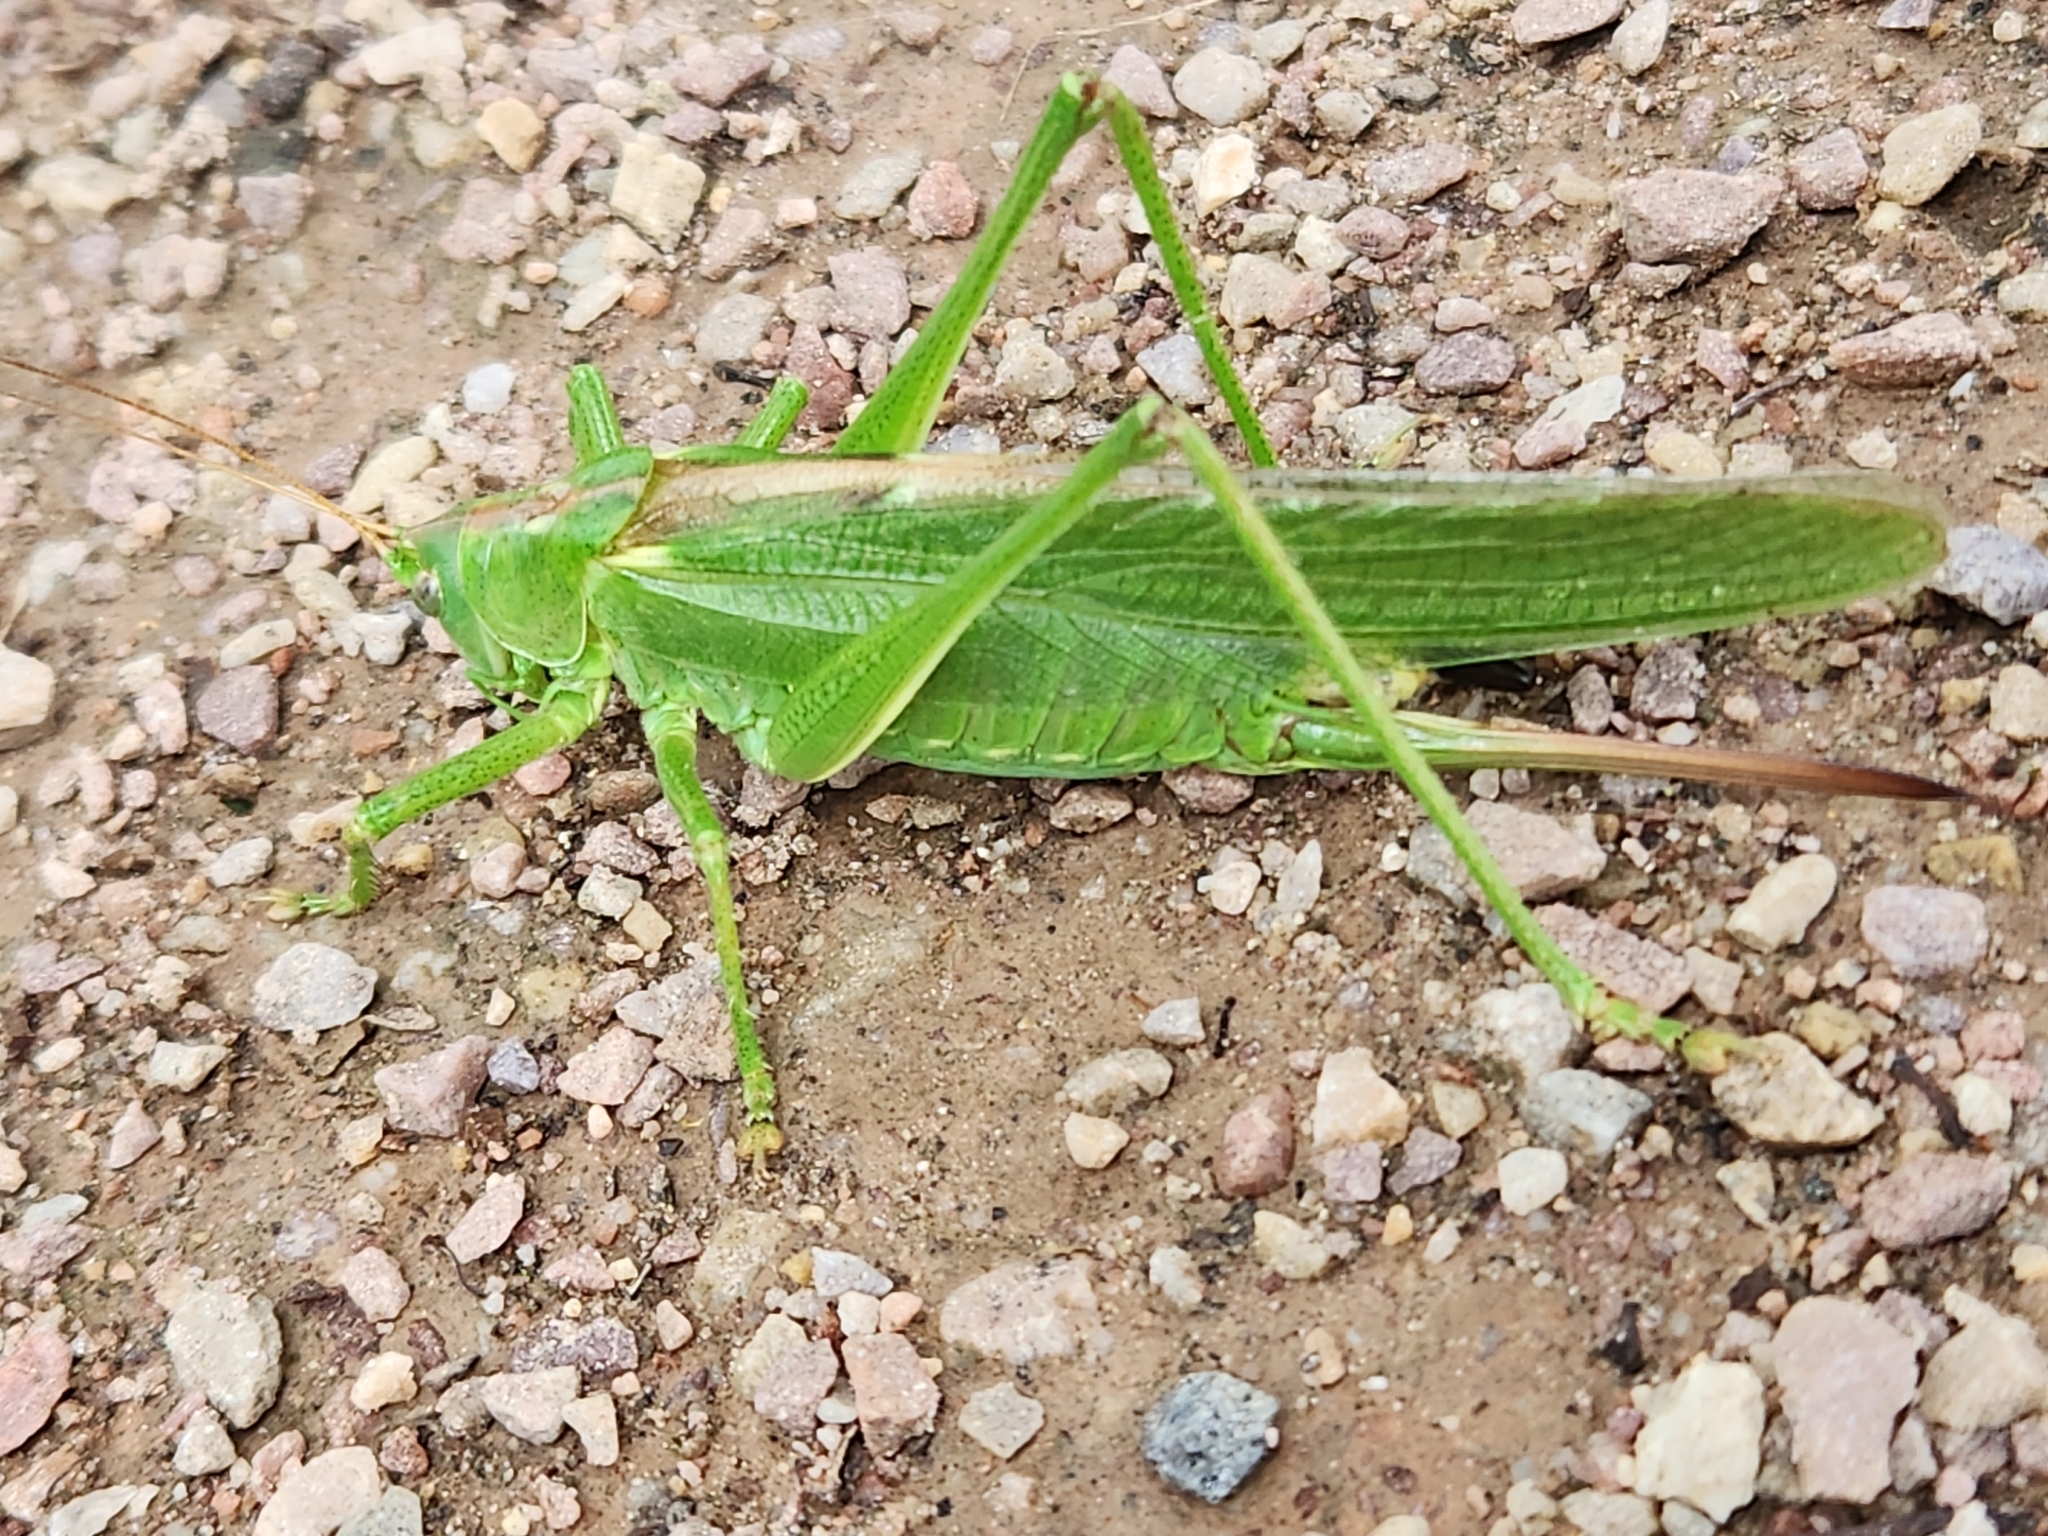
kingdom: Animalia
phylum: Arthropoda
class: Insecta
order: Orthoptera
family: Tettigoniidae
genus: Tettigonia
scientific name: Tettigonia viridissima
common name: Great green bush-cricket
